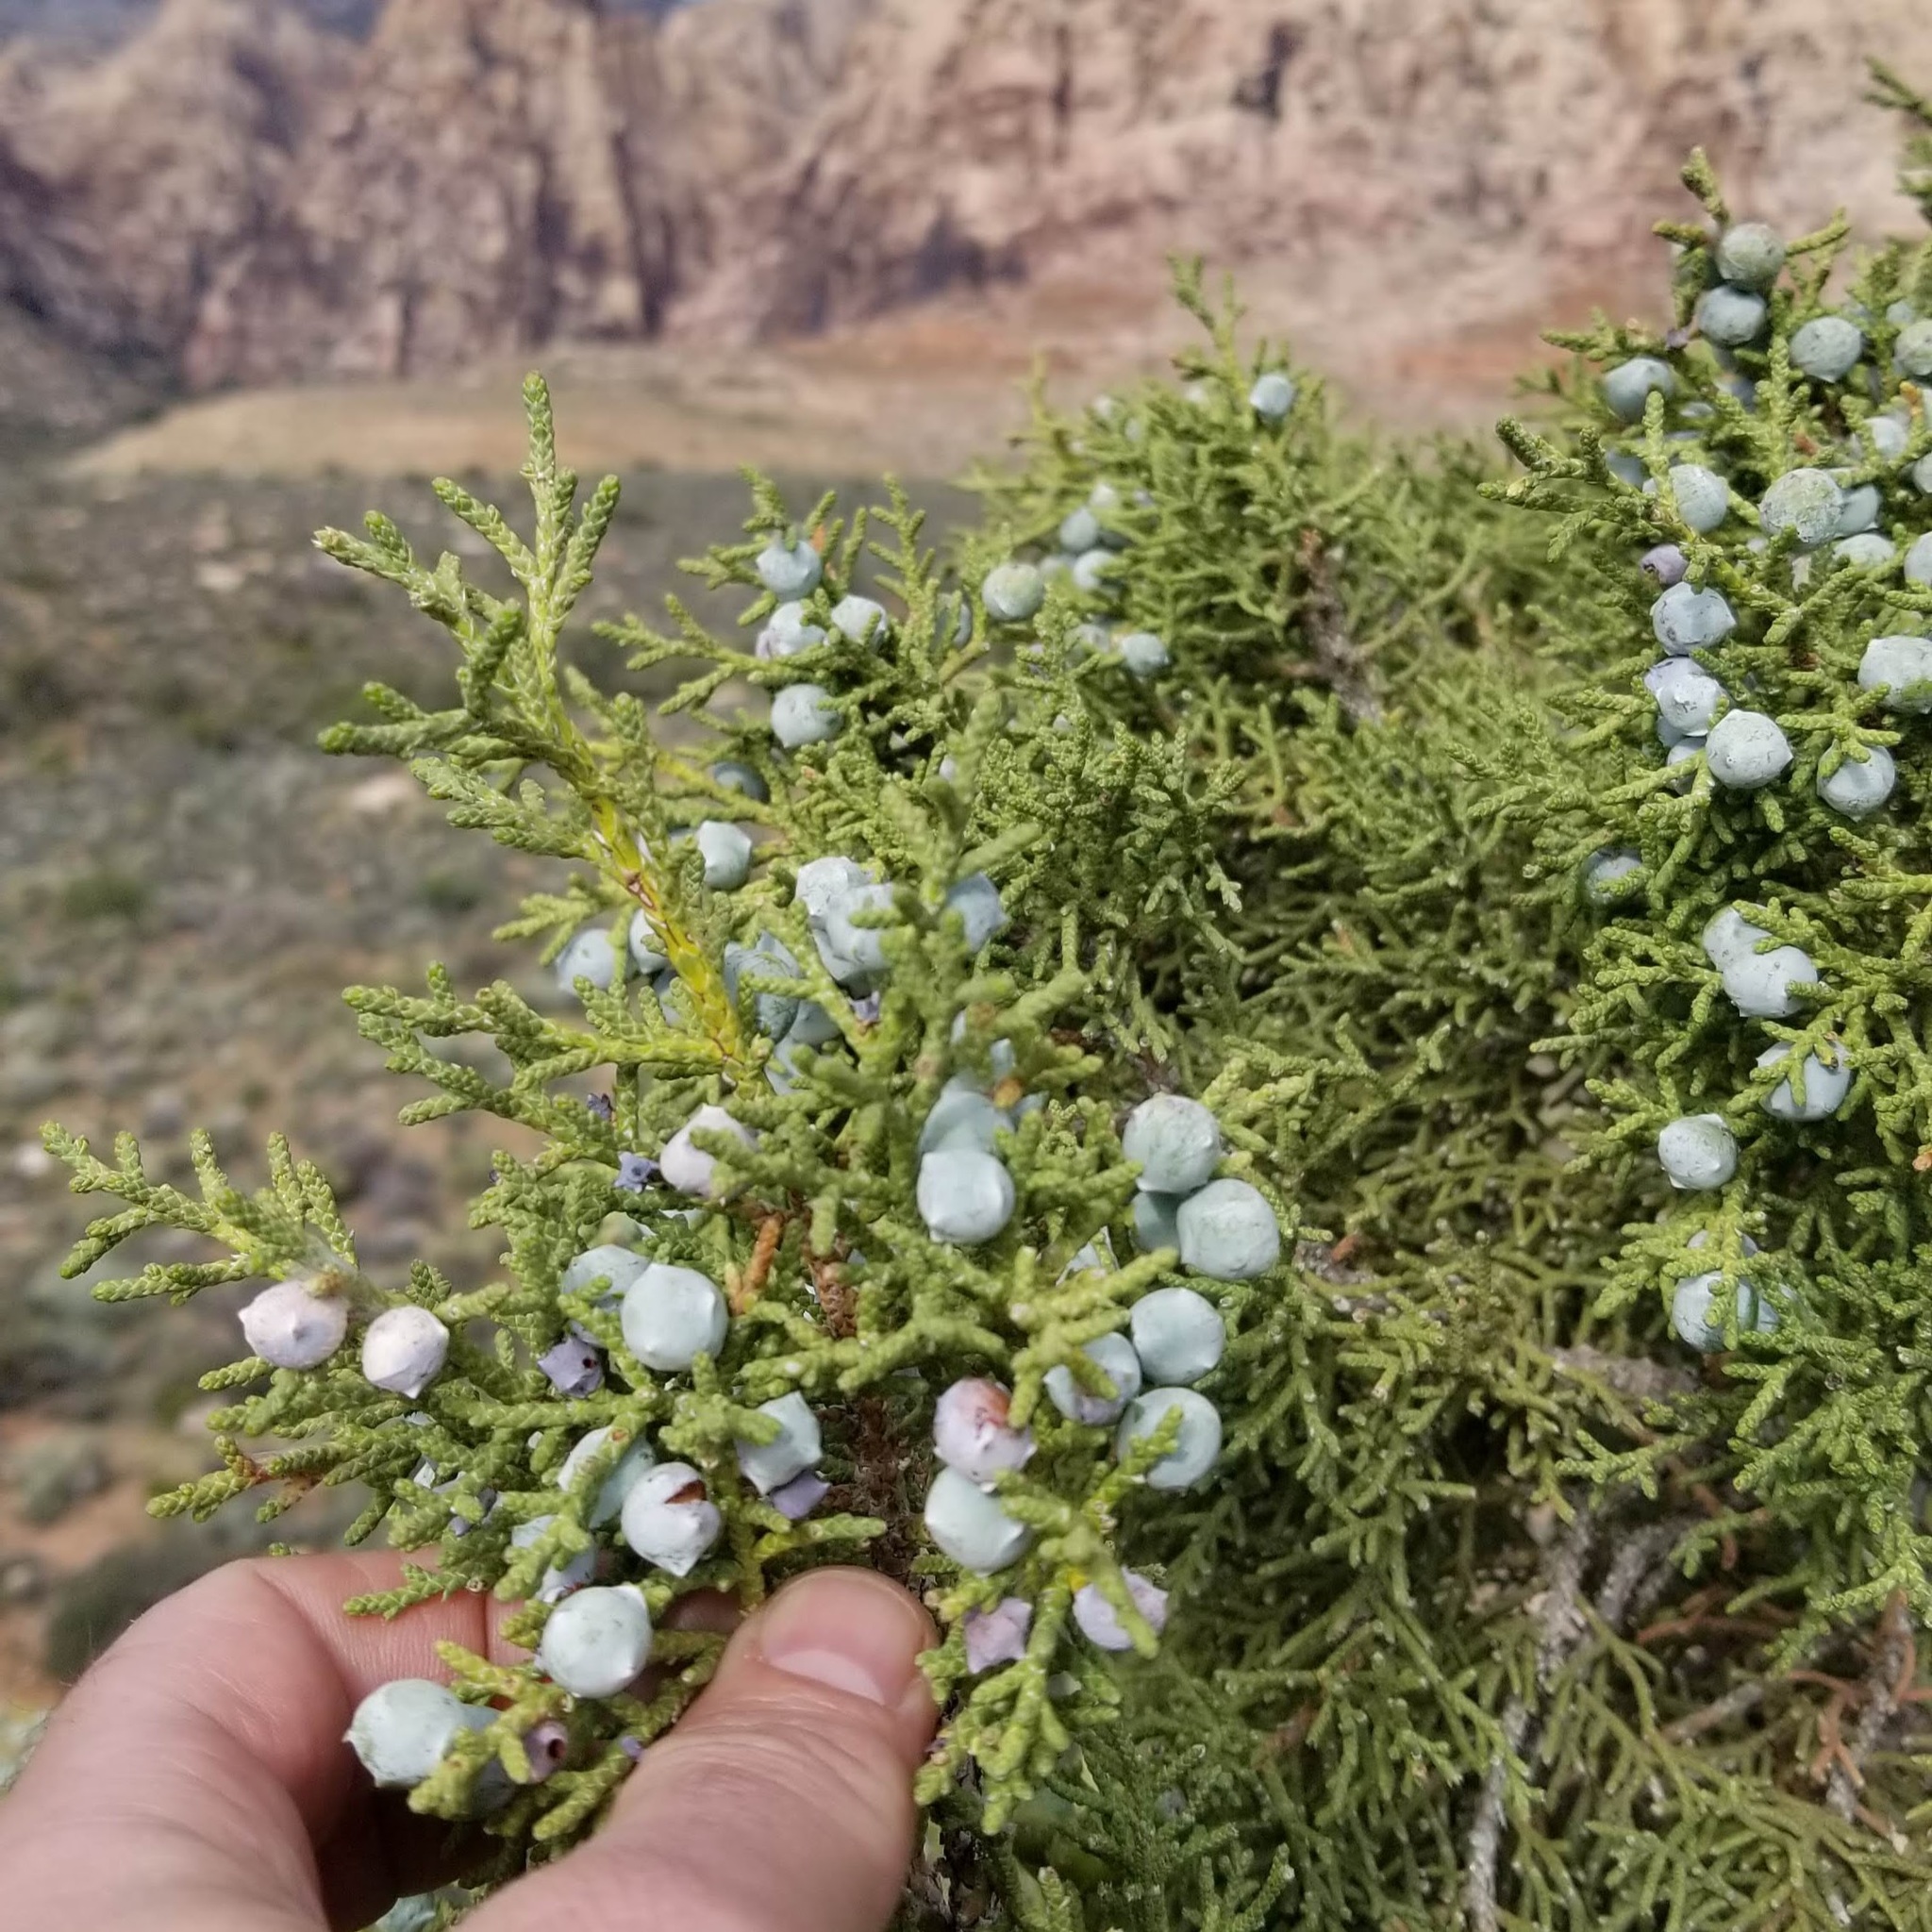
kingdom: Plantae
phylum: Tracheophyta
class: Pinopsida
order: Pinales
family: Cupressaceae
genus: Juniperus
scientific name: Juniperus osteosperma
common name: Utah juniper
